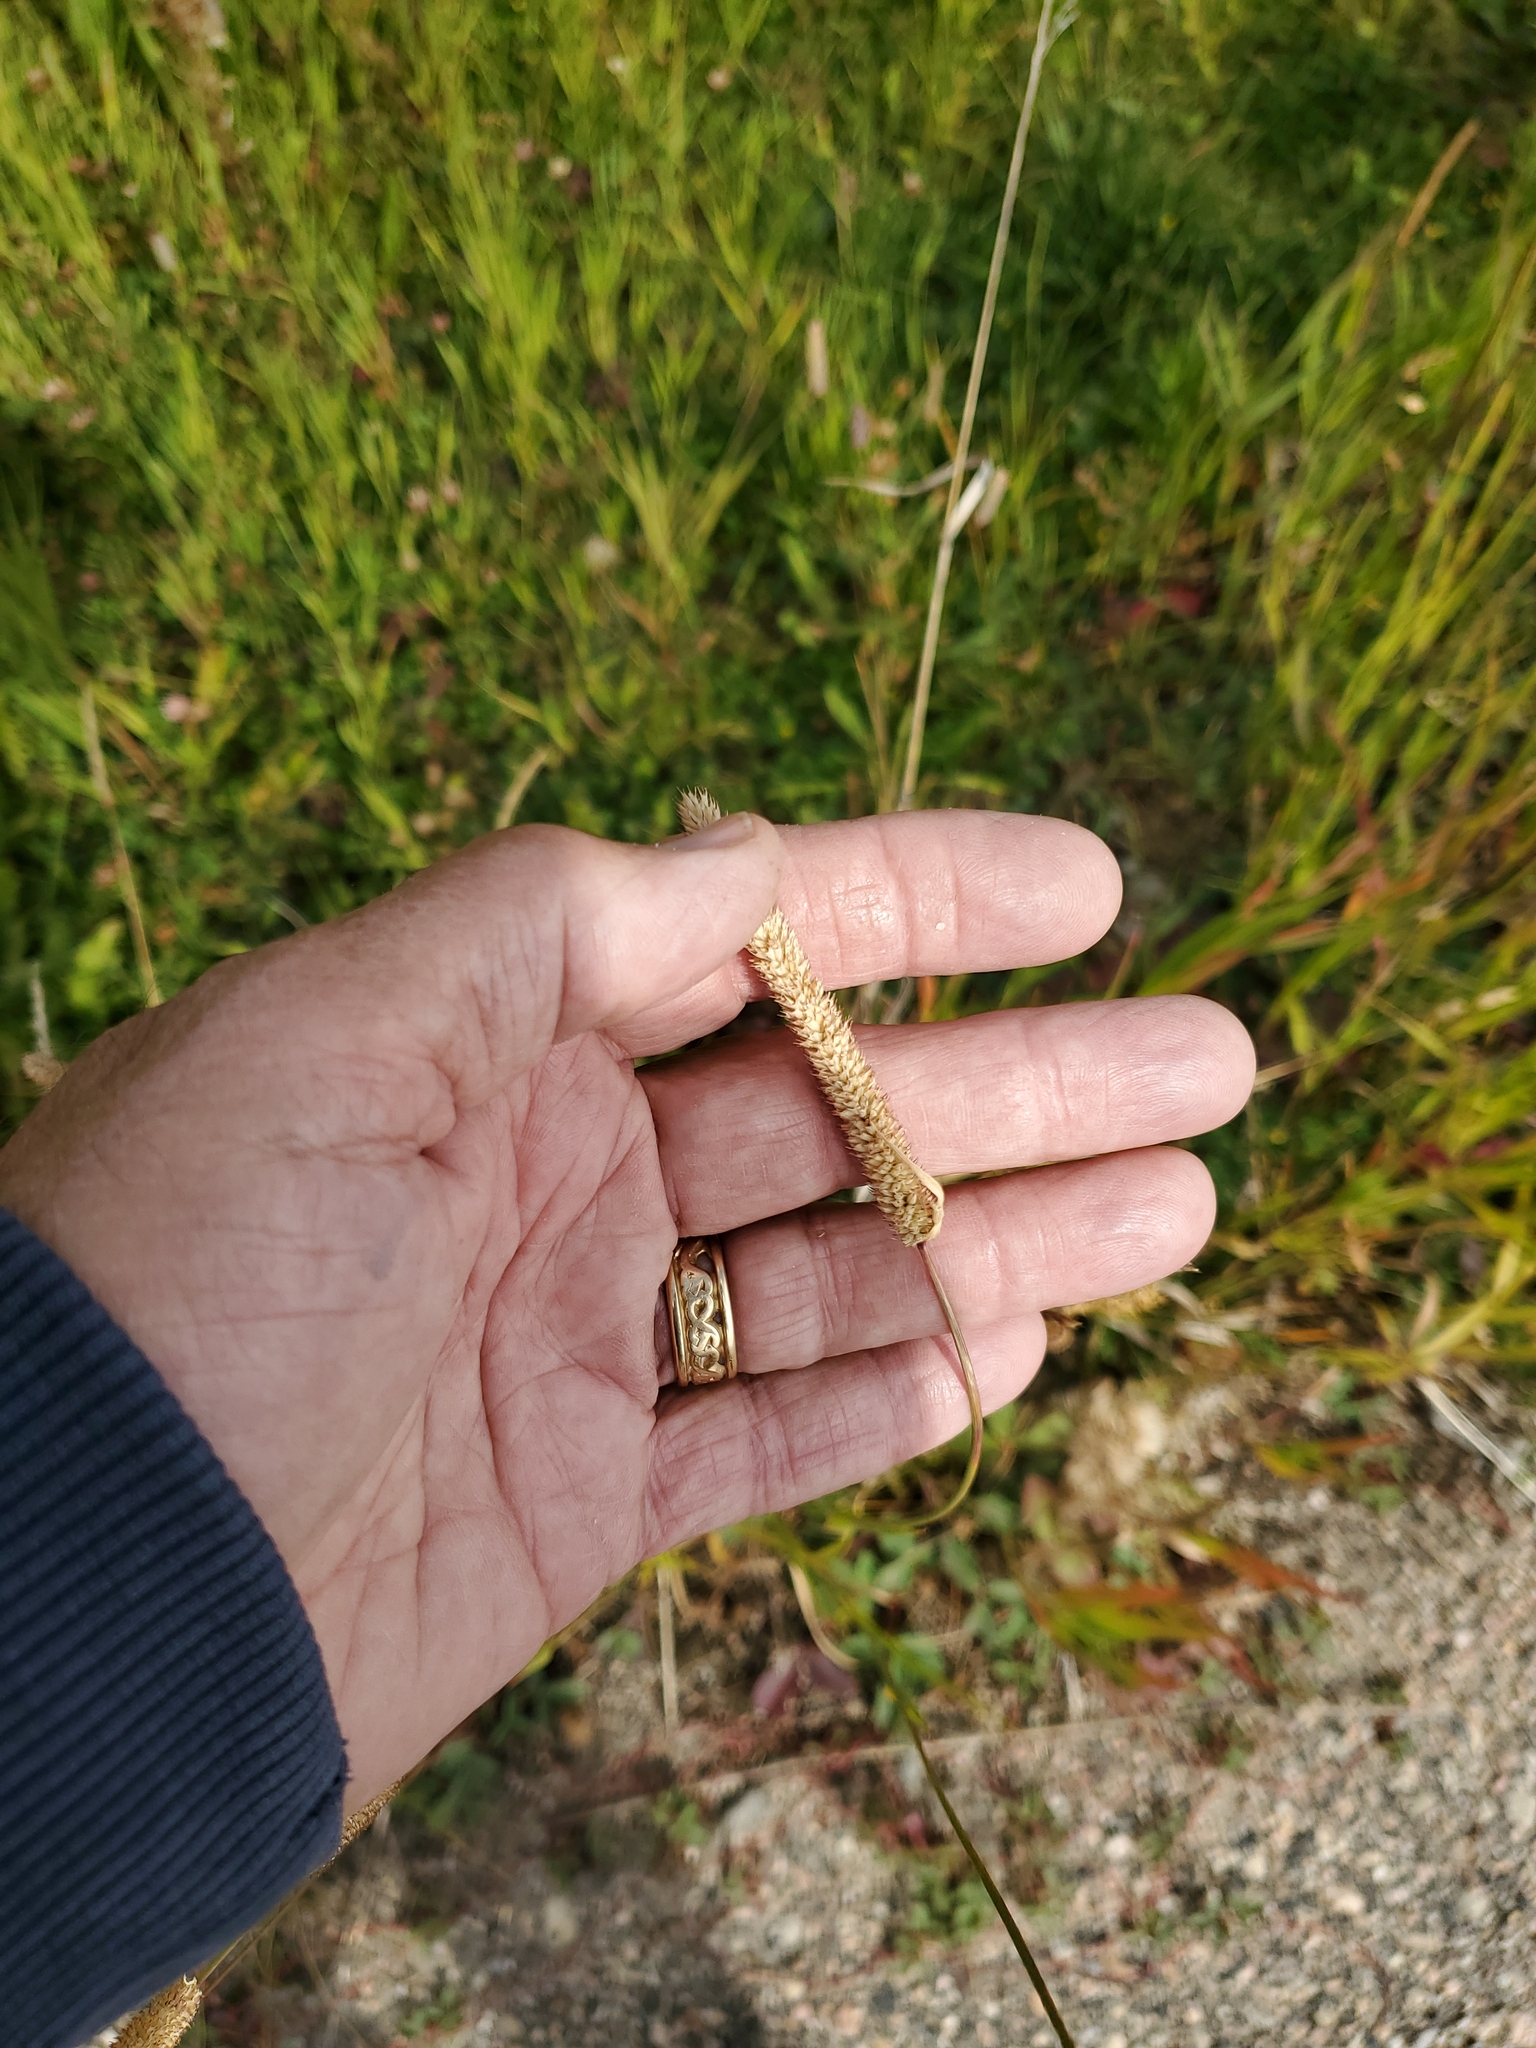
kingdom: Plantae
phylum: Tracheophyta
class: Liliopsida
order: Poales
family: Poaceae
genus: Phleum
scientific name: Phleum pratense
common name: Timothy grass
